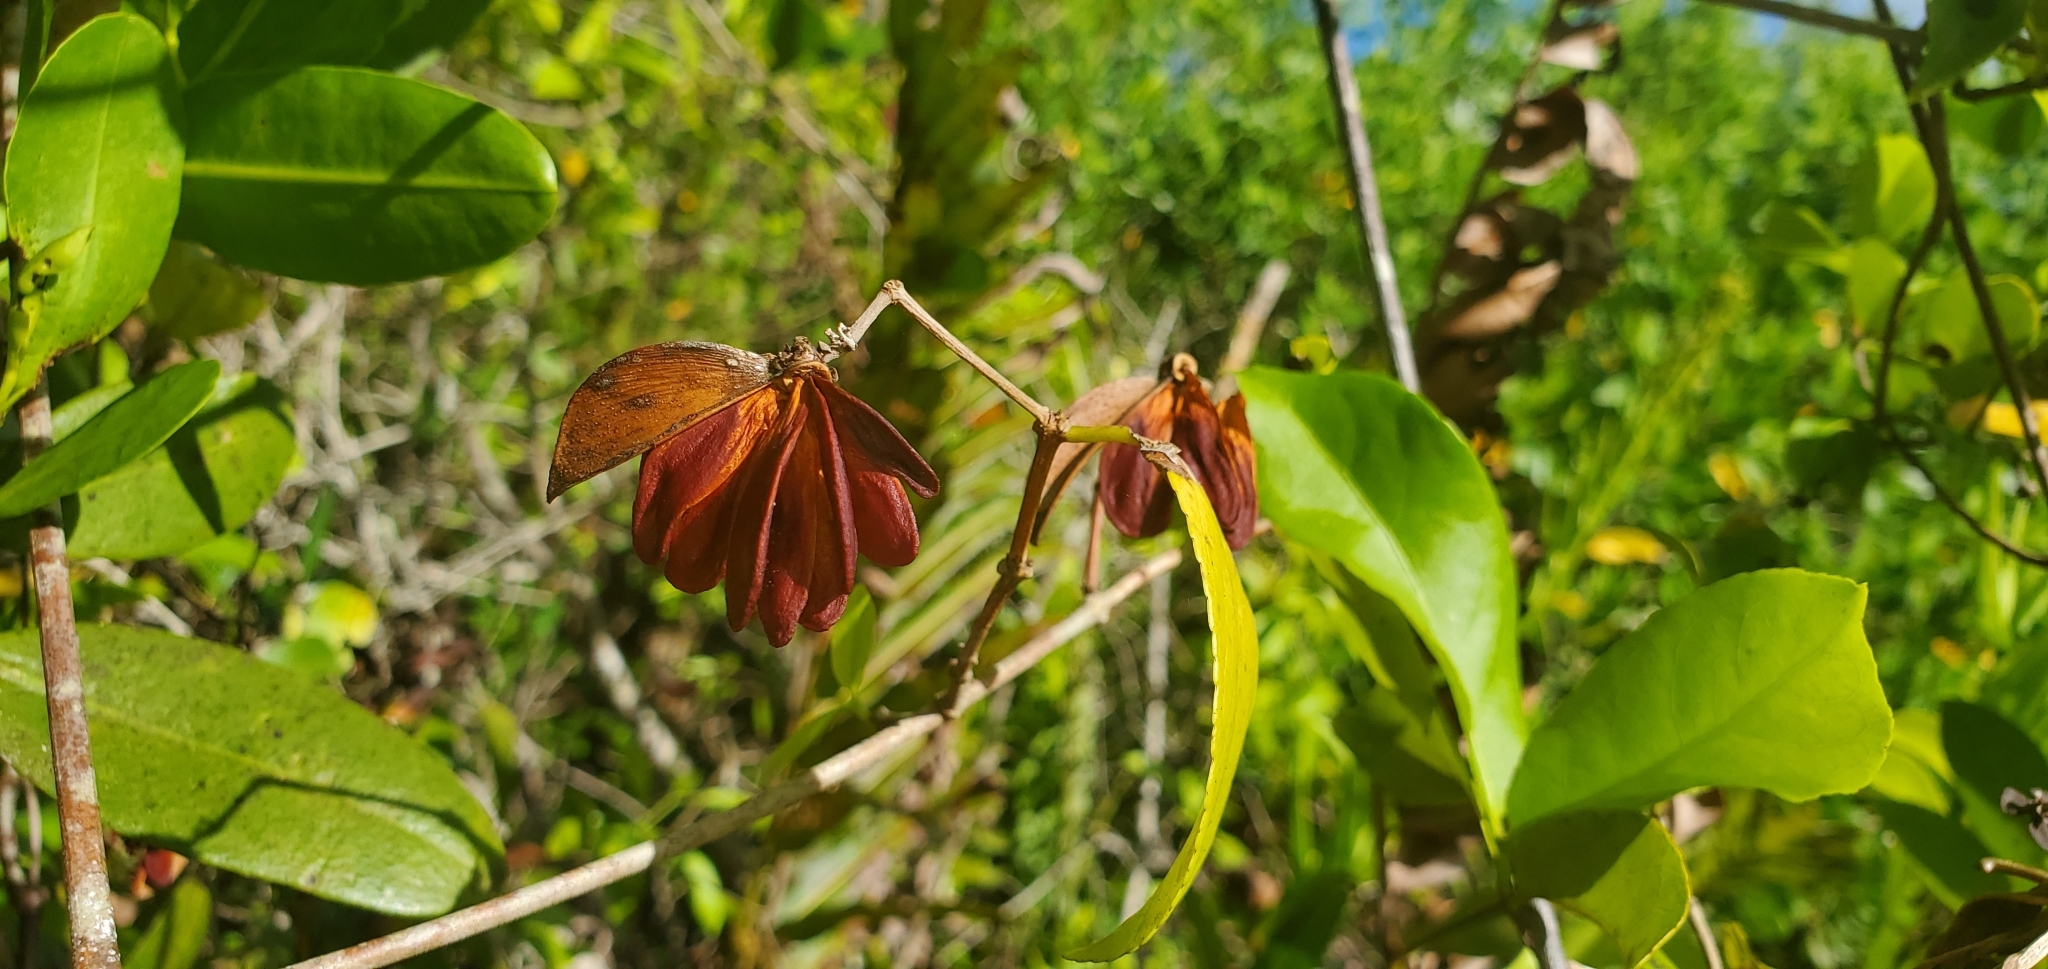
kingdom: Plantae
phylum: Tracheophyta
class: Magnoliopsida
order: Celastrales
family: Celastraceae
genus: Hippocratea
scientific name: Hippocratea volubilis
